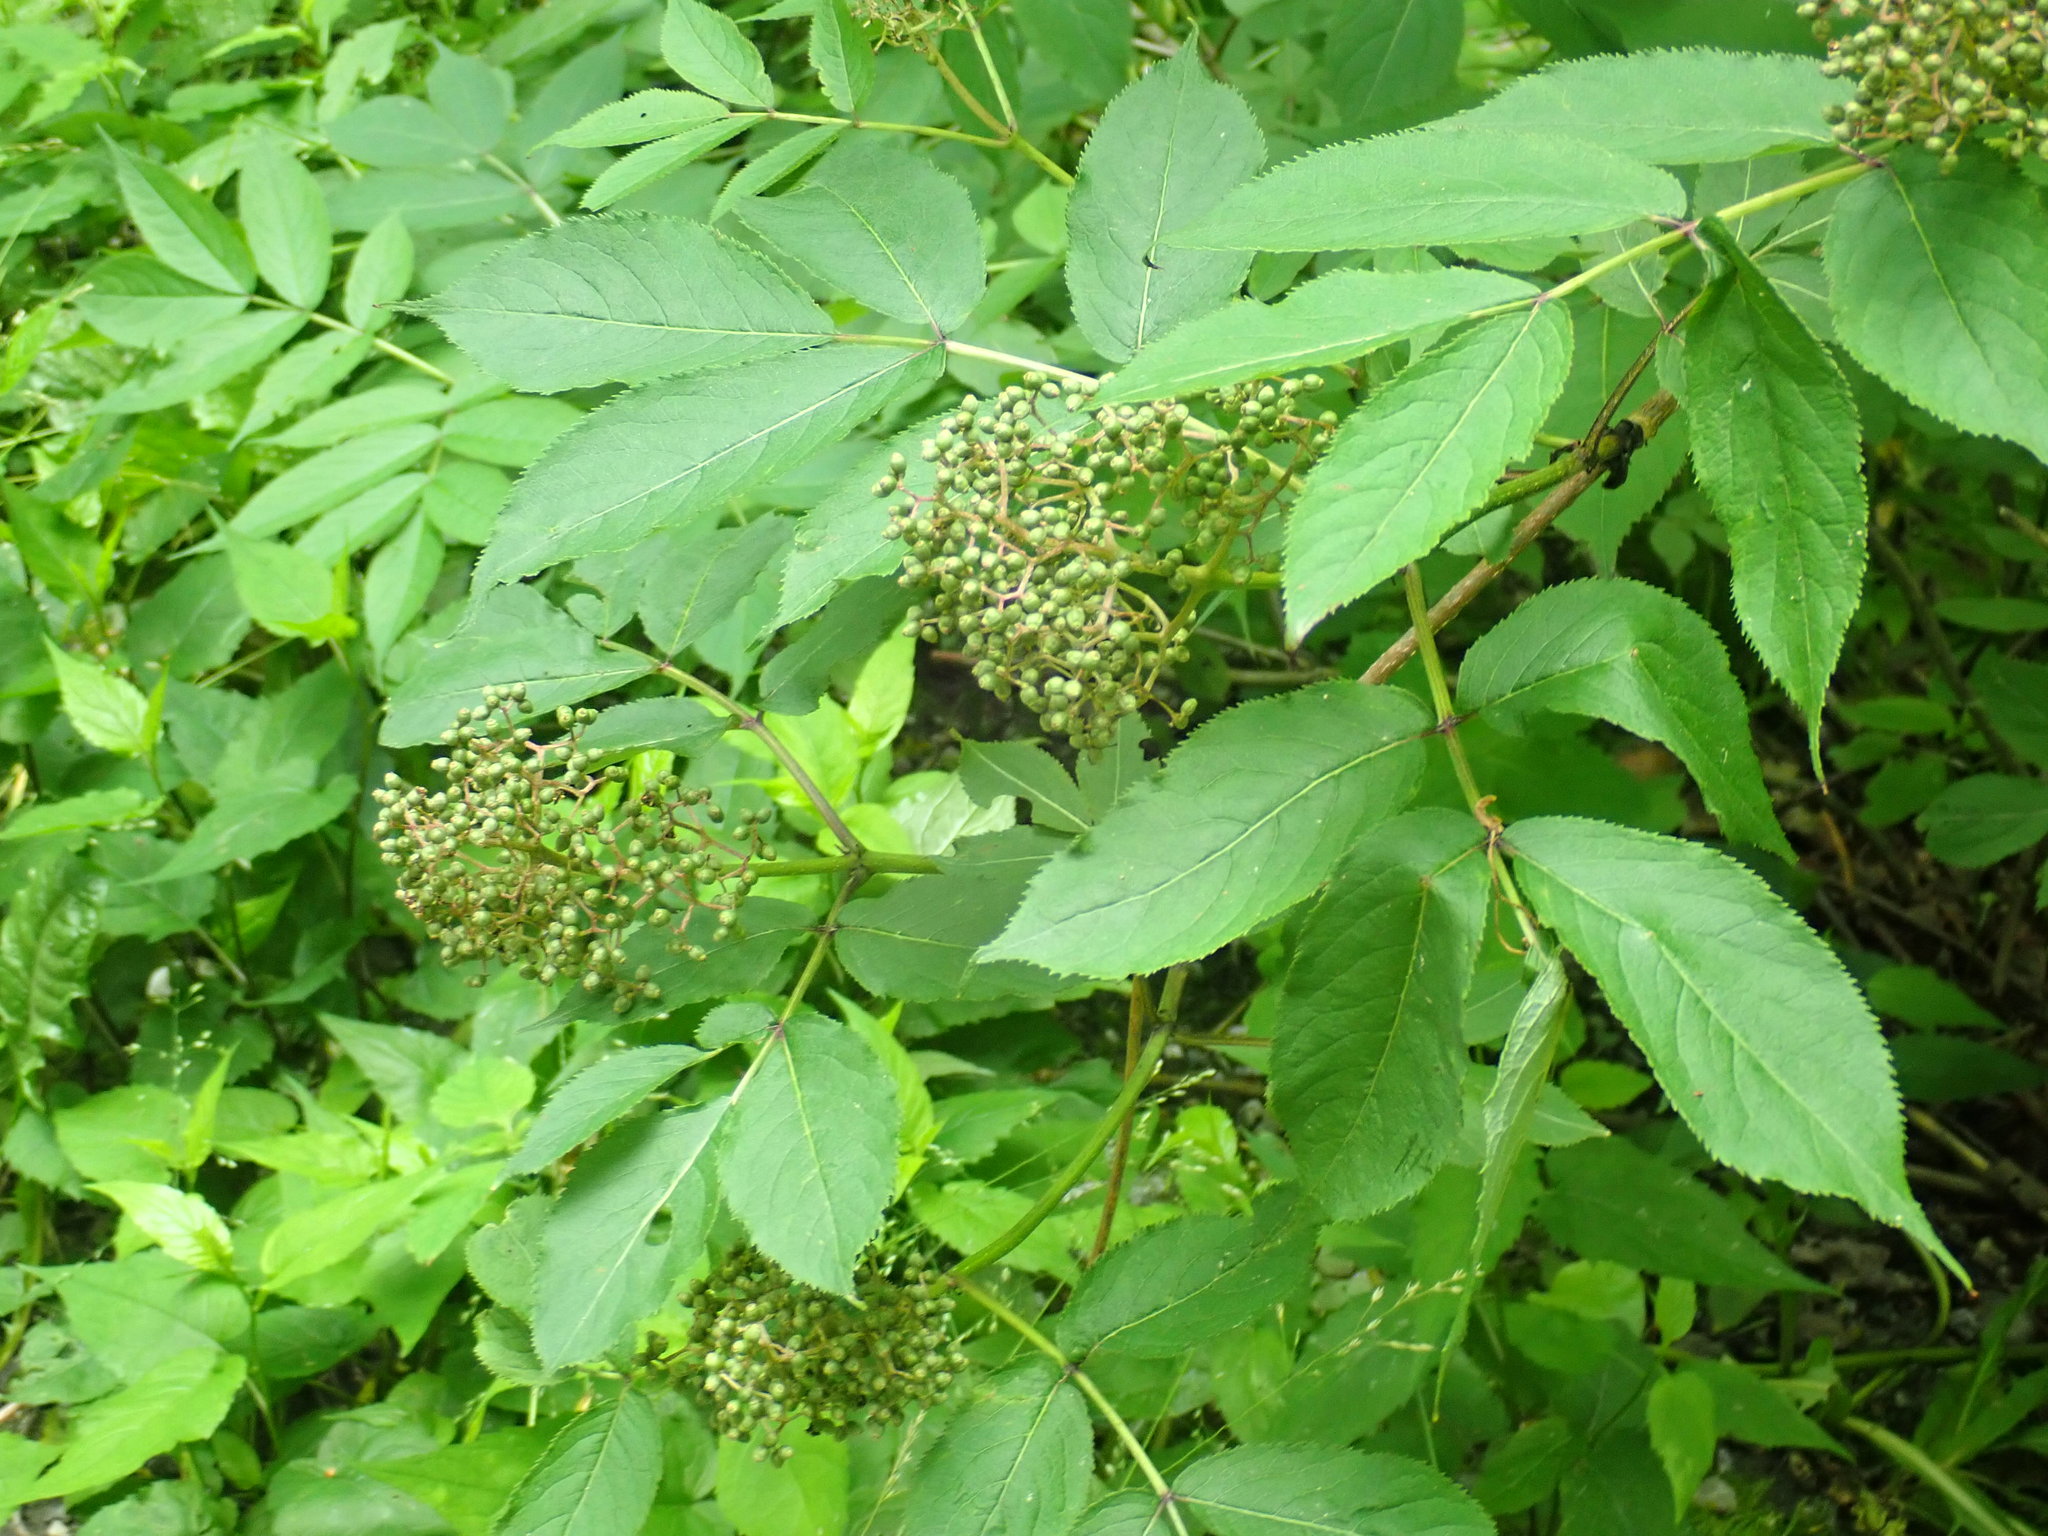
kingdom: Plantae
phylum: Tracheophyta
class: Magnoliopsida
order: Dipsacales
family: Viburnaceae
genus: Sambucus
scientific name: Sambucus racemosa
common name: Red-berried elder
